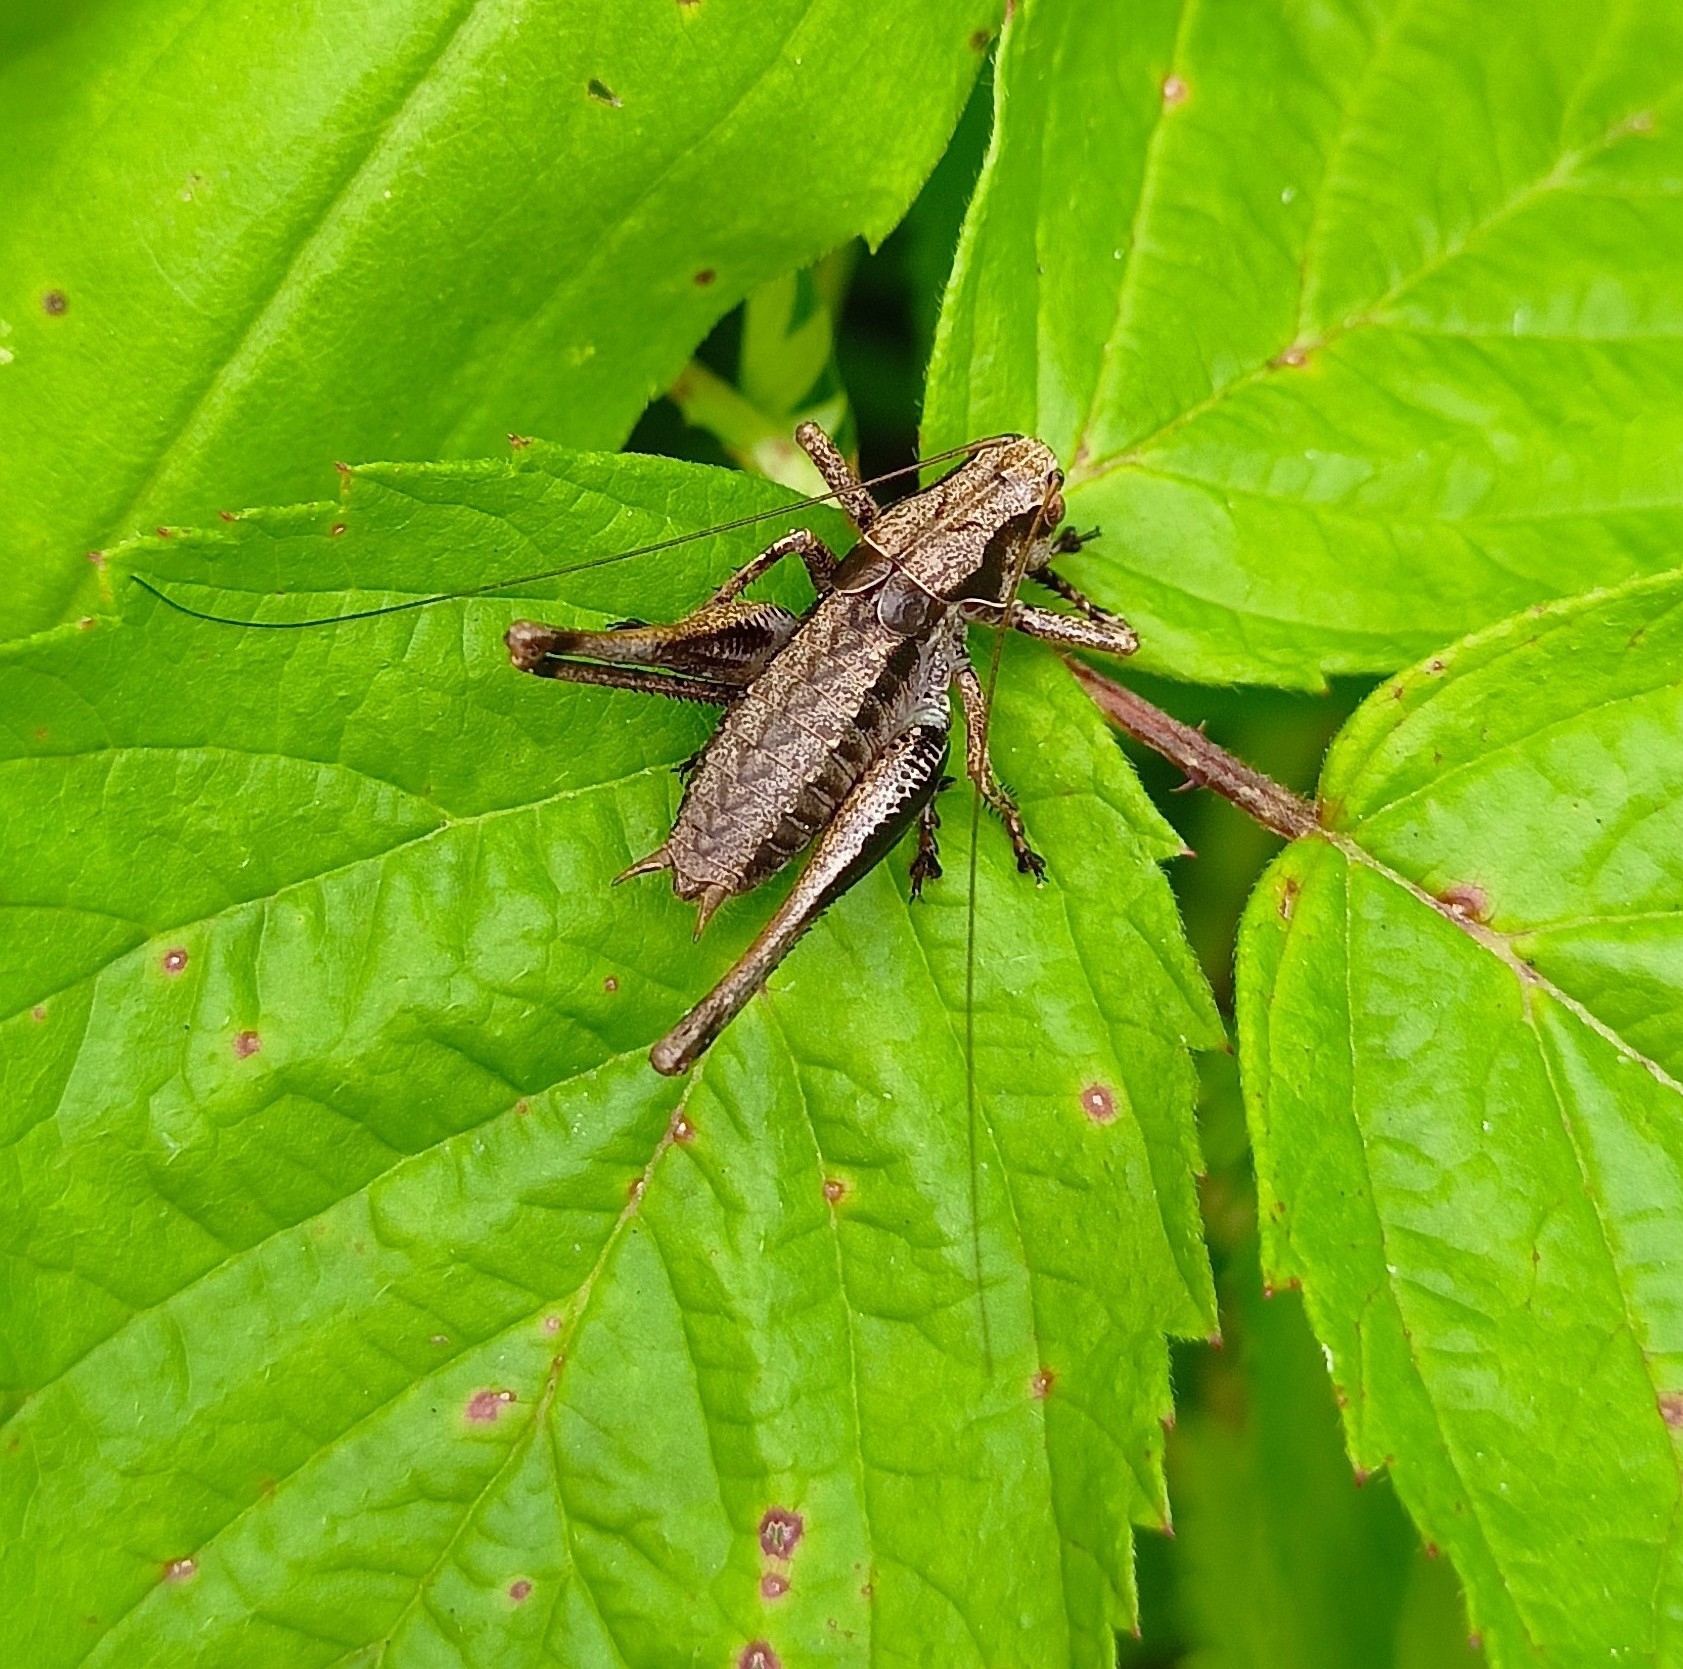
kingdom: Animalia
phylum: Arthropoda
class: Insecta
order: Orthoptera
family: Tettigoniidae
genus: Pholidoptera
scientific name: Pholidoptera griseoaptera
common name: Dark bush-cricket
